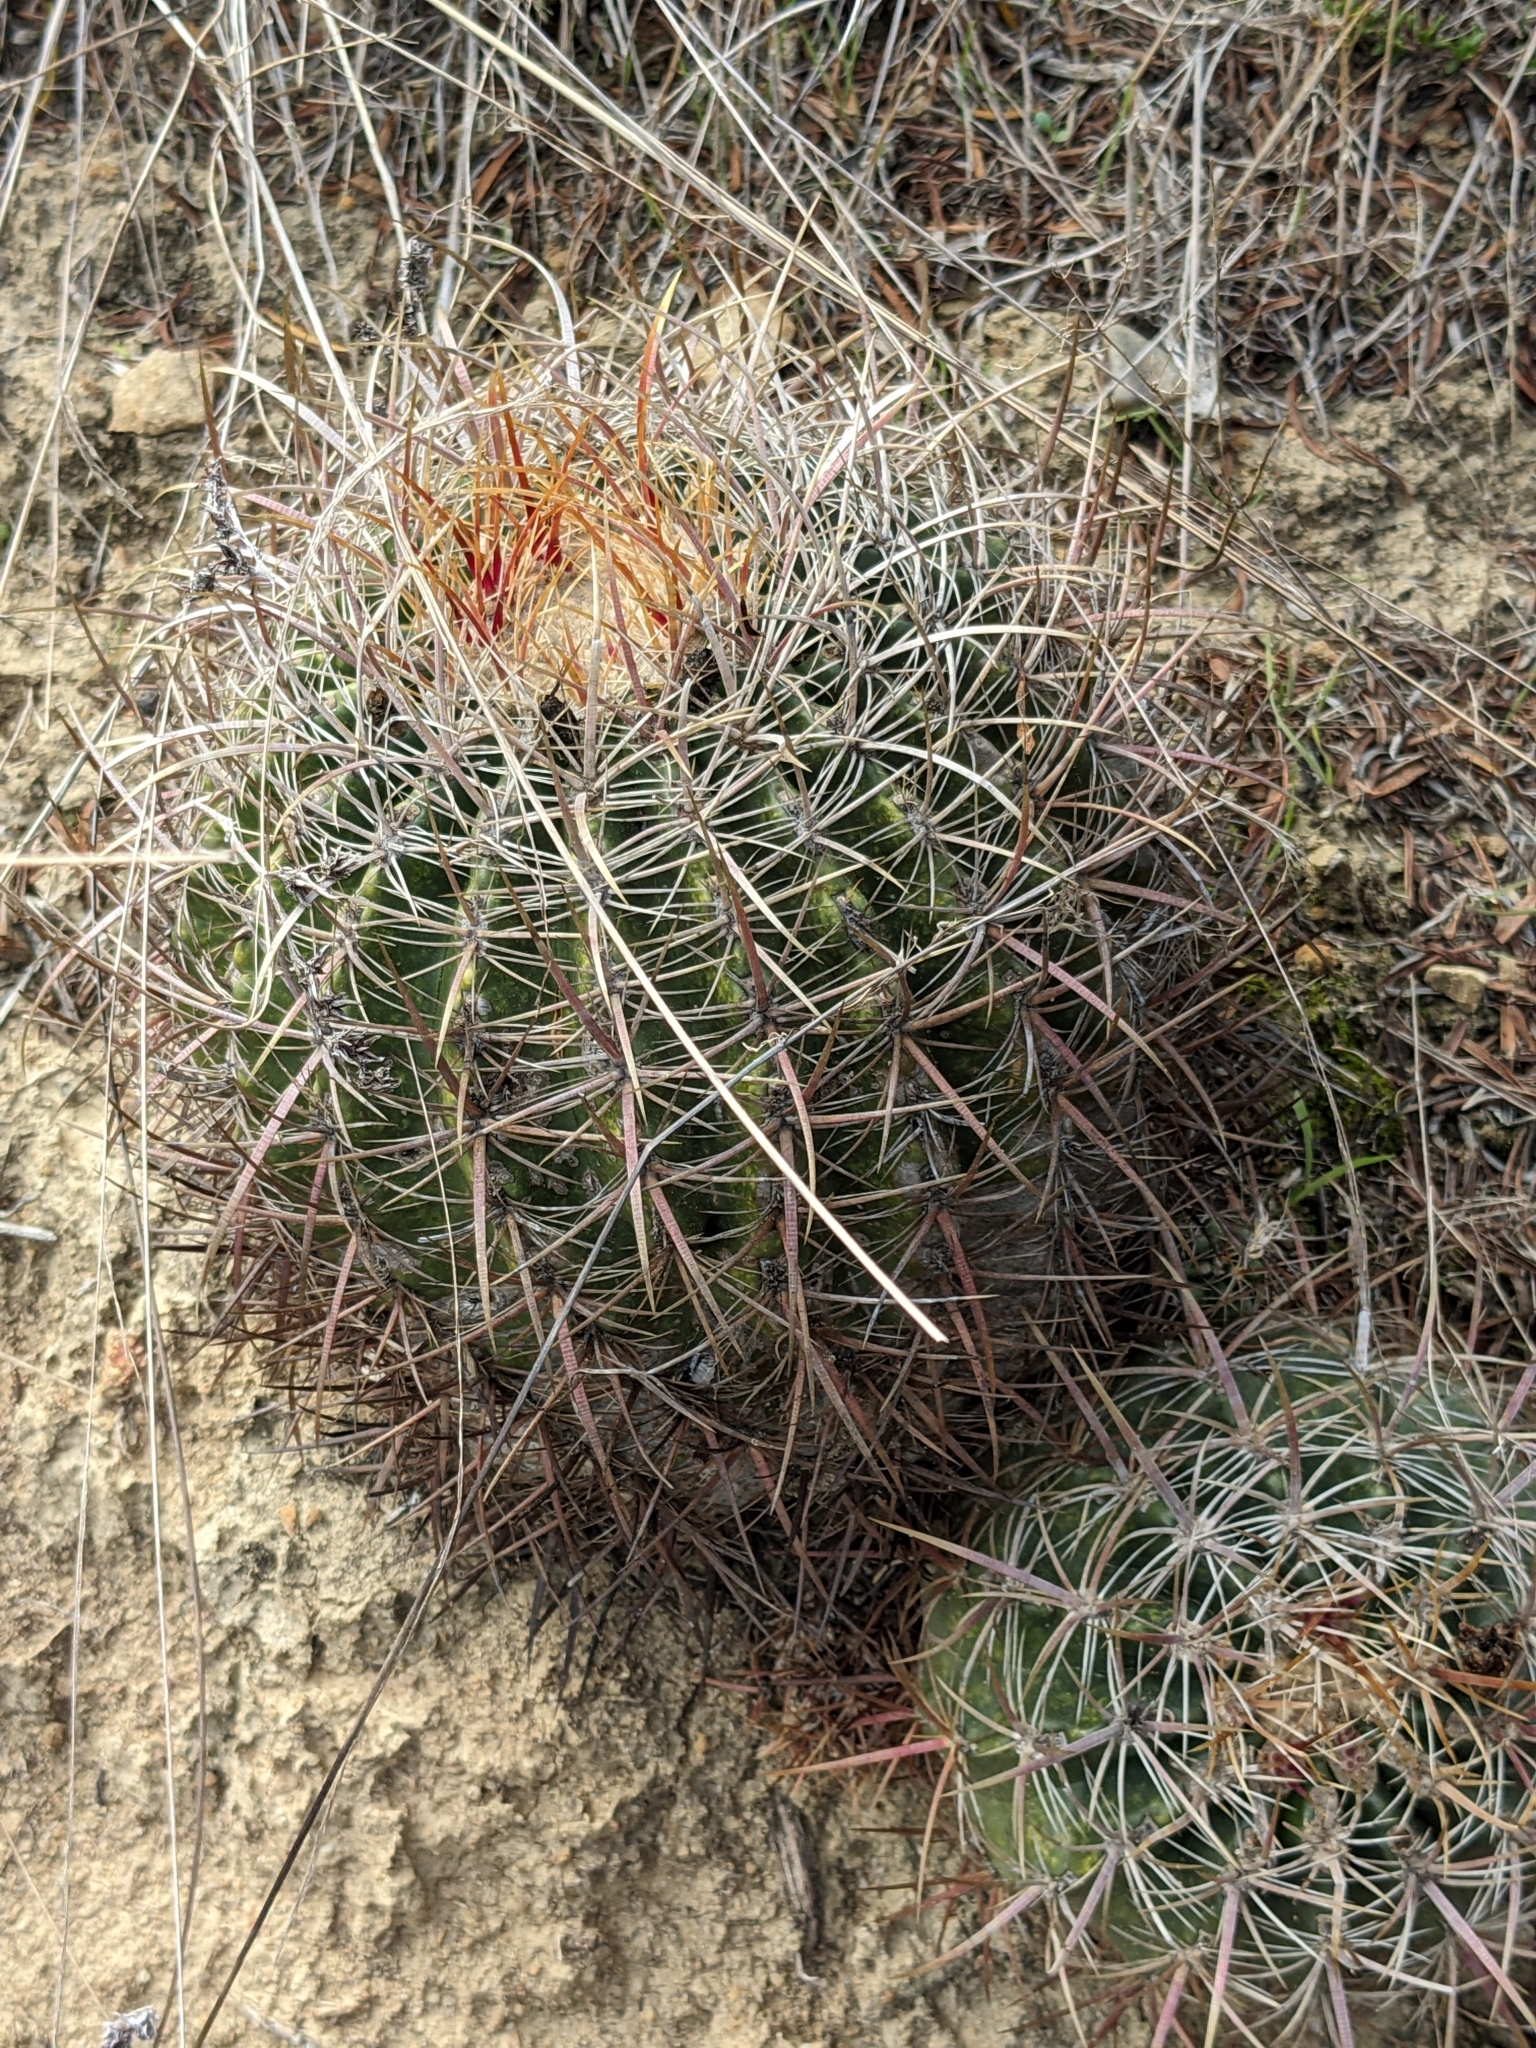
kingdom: Plantae
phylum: Tracheophyta
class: Magnoliopsida
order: Caryophyllales
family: Cactaceae
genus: Ferocactus
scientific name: Ferocactus viridescens
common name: San diego barrel cactus
